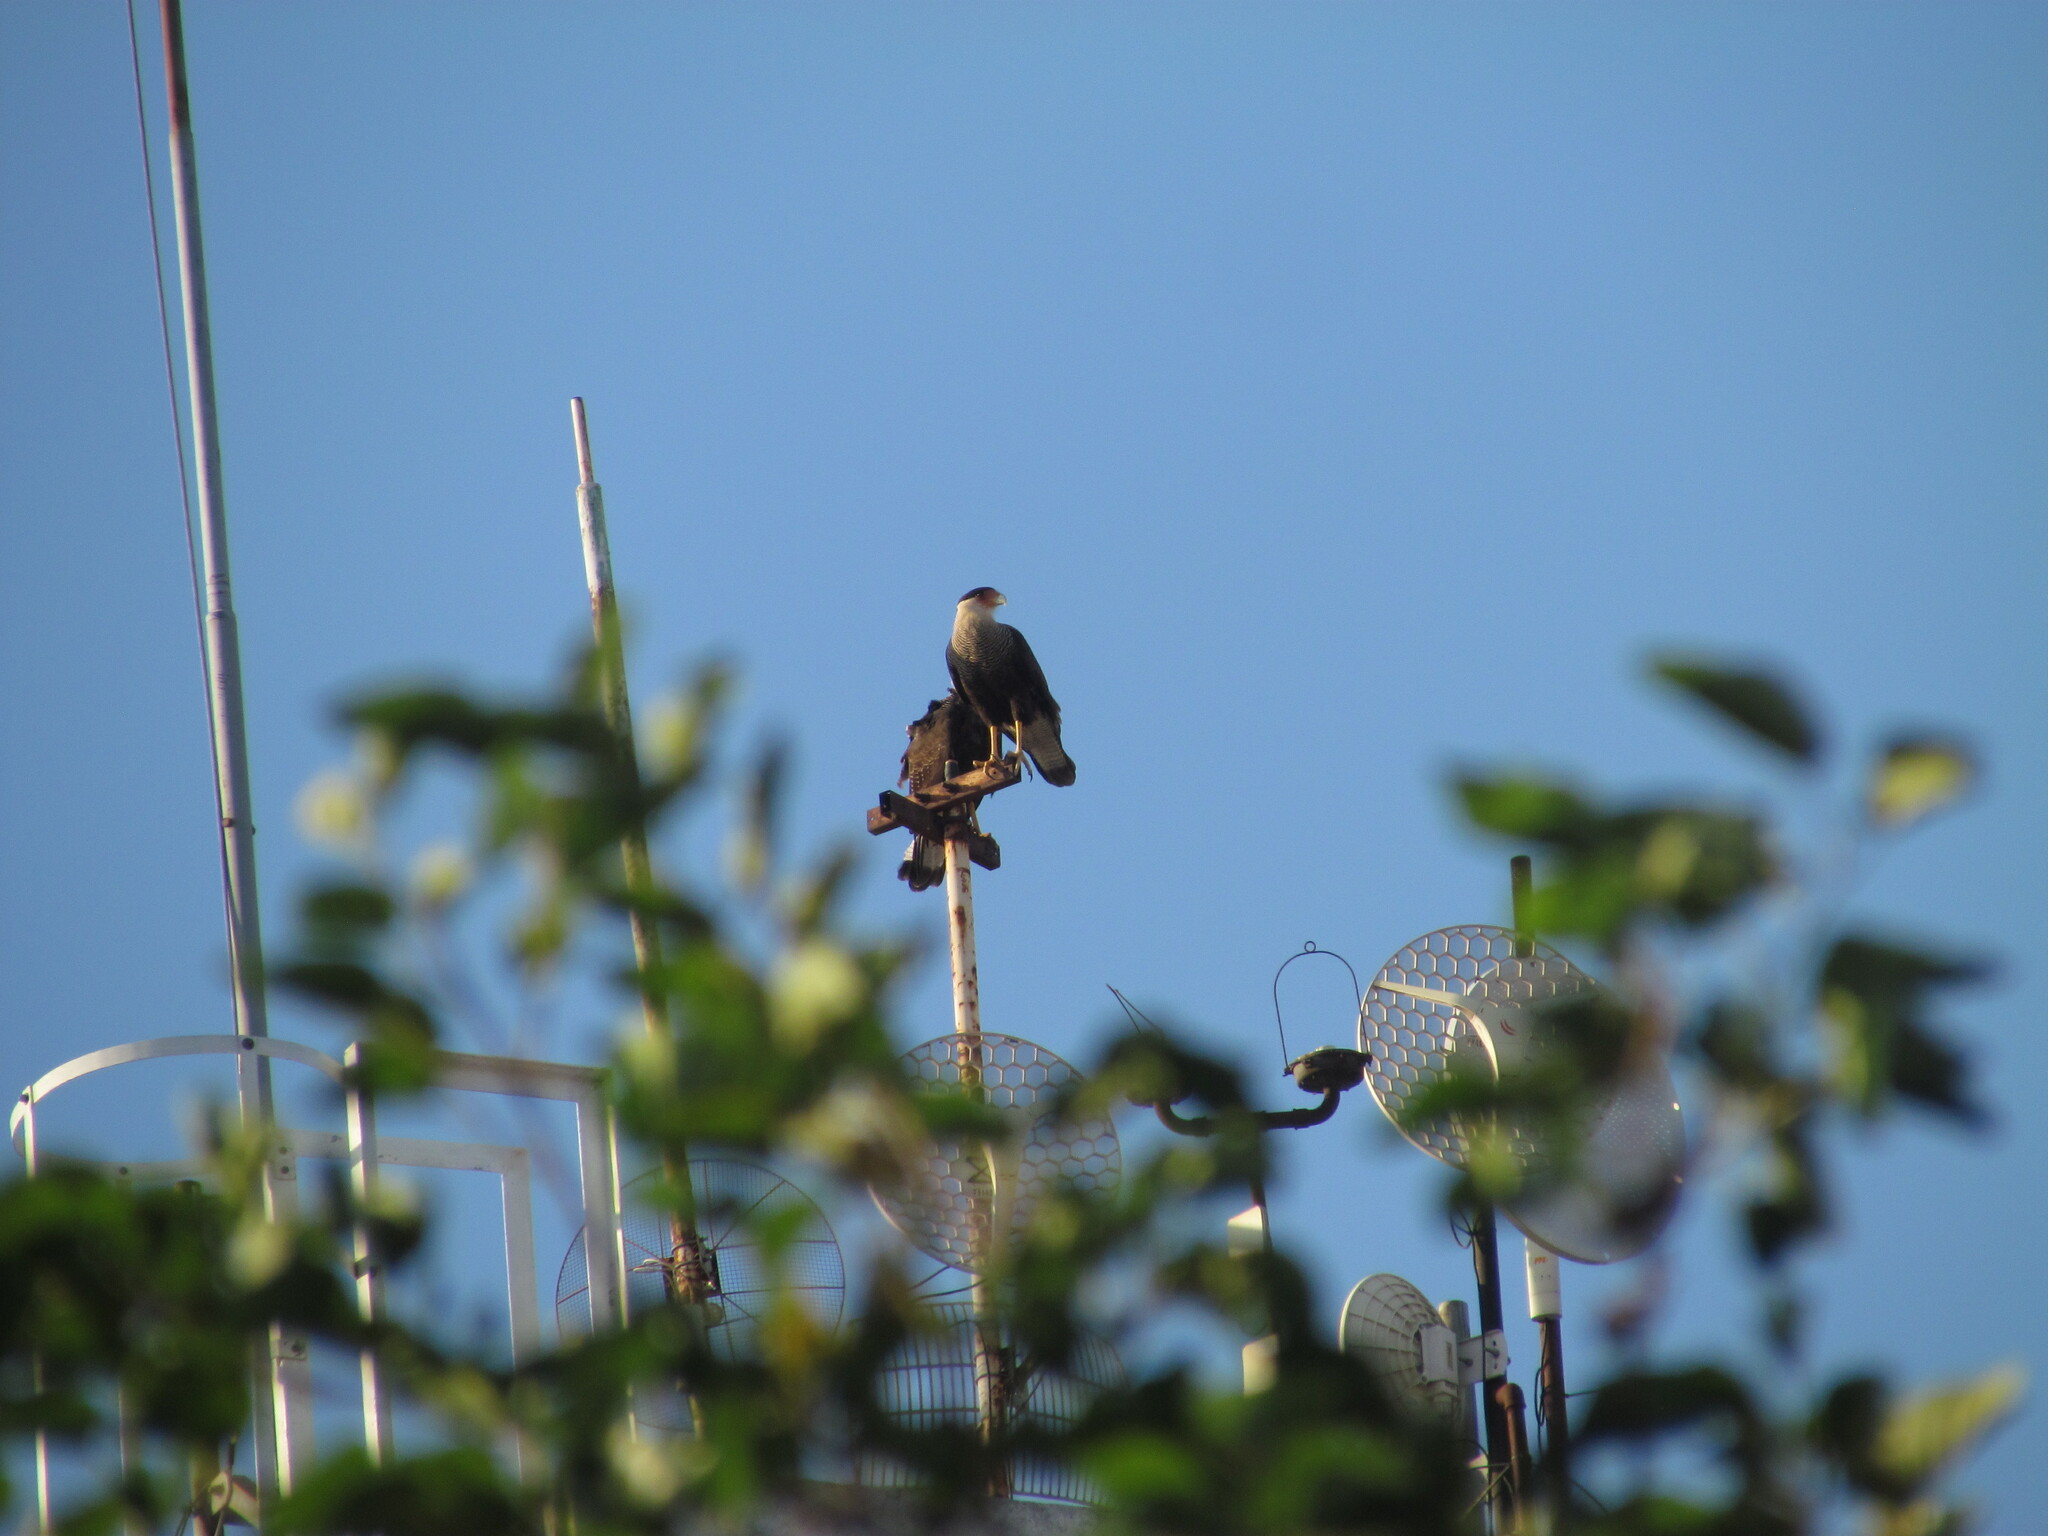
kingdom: Animalia
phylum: Chordata
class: Aves
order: Falconiformes
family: Falconidae
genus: Caracara
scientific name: Caracara plancus
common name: Southern caracara
